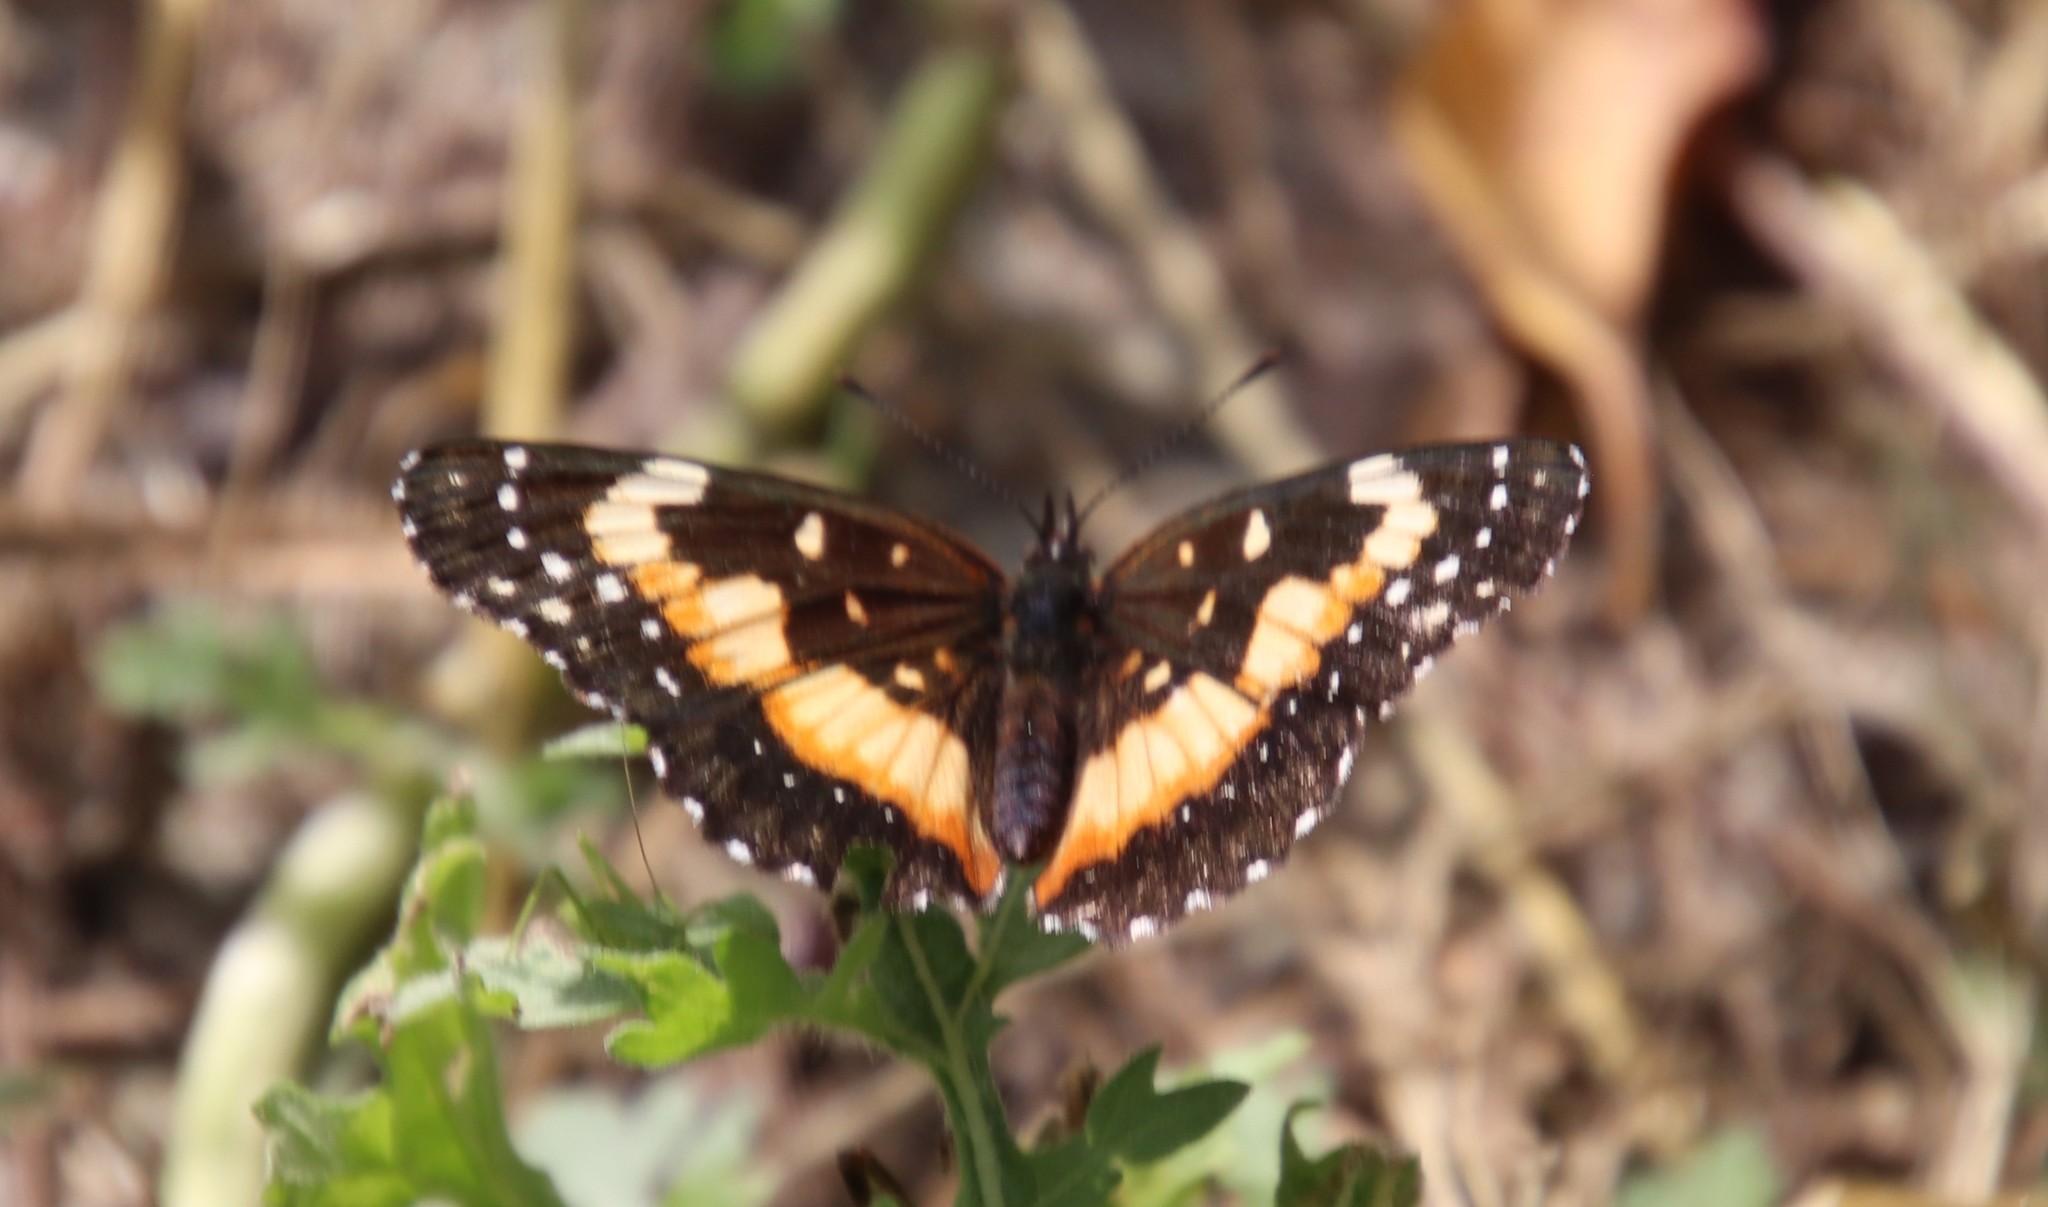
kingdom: Animalia
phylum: Arthropoda
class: Insecta
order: Lepidoptera
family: Nymphalidae
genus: Chlosyne
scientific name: Chlosyne lacinia
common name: Bordered patch
